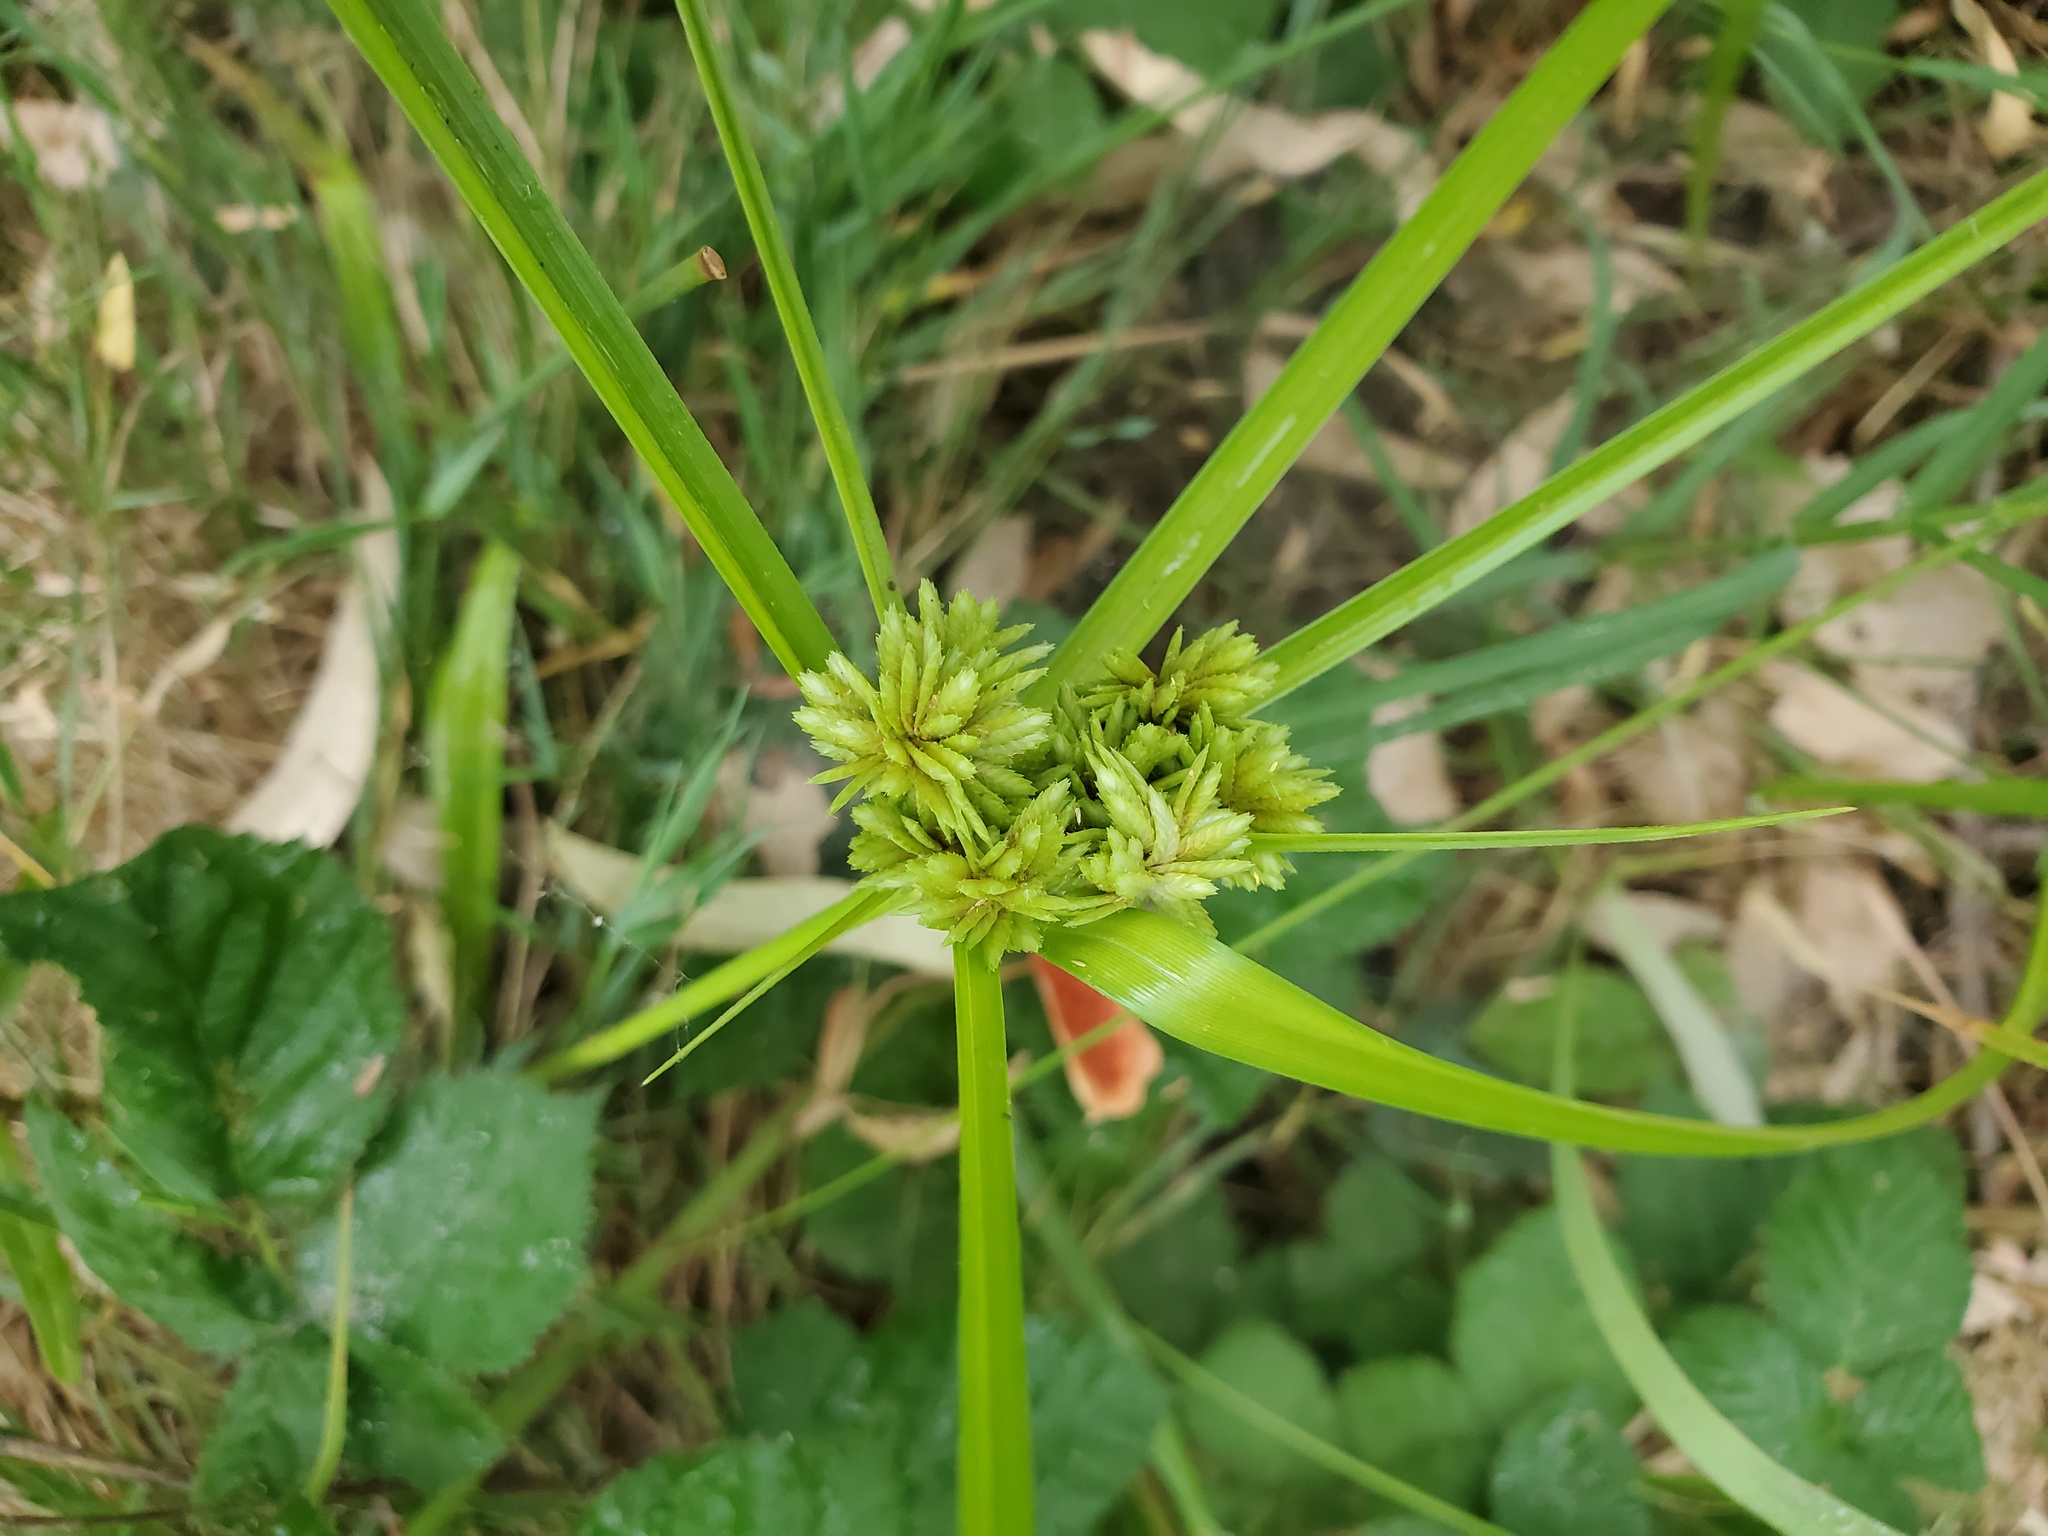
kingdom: Plantae
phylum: Tracheophyta
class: Liliopsida
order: Poales
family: Cyperaceae
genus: Cyperus
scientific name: Cyperus eragrostis
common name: Tall flatsedge
